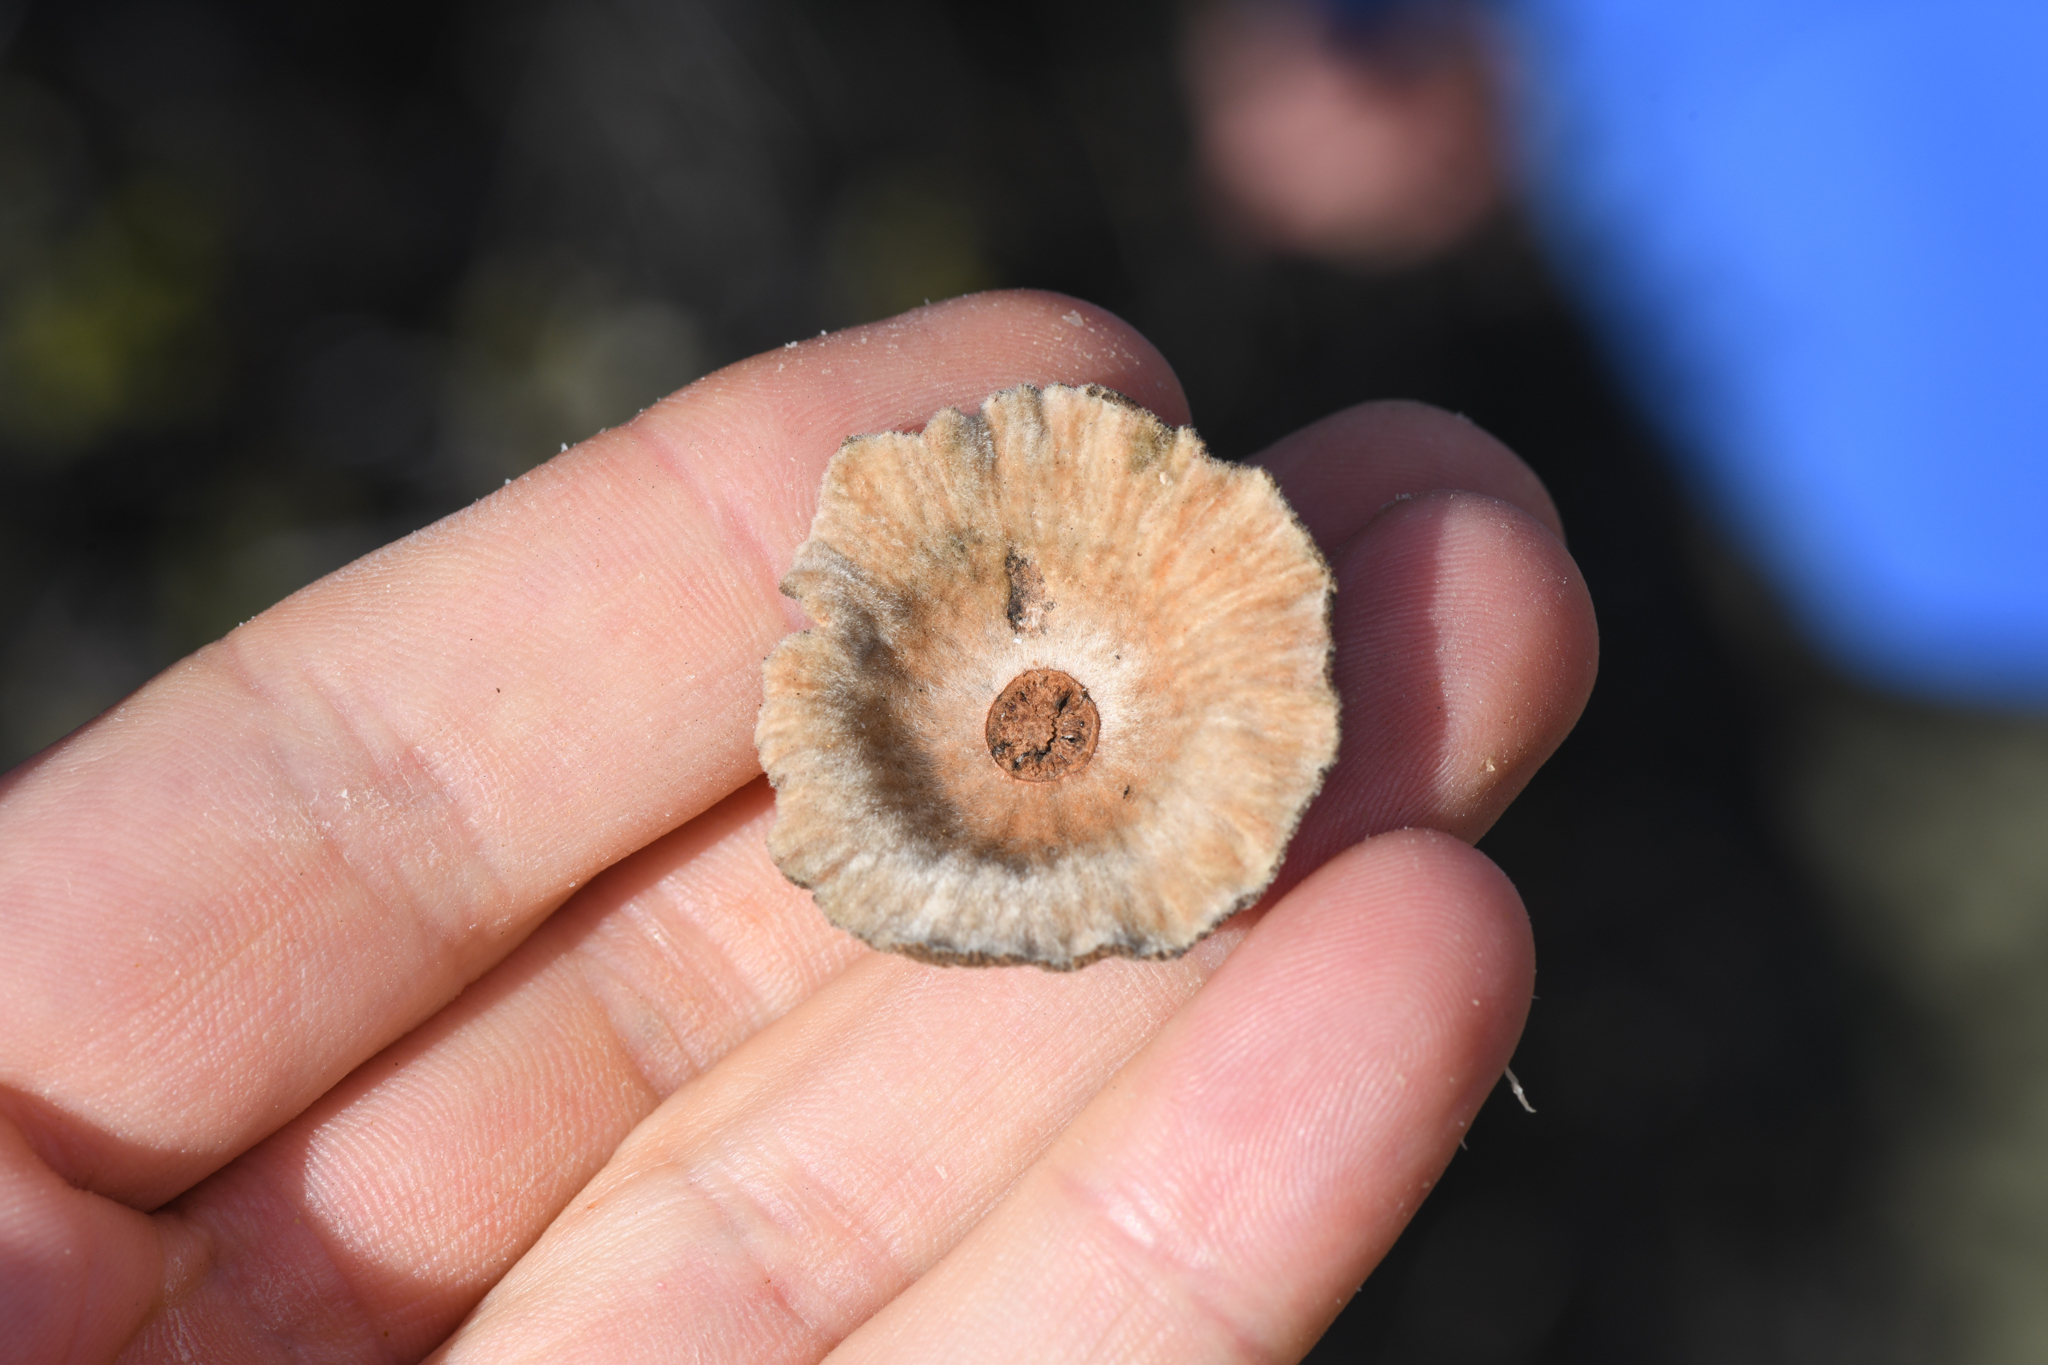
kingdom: Plantae
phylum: Tracheophyta
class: Magnoliopsida
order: Fagales
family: Fagaceae
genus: Quercus
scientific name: Quercus palmeri
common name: Dunn oak
